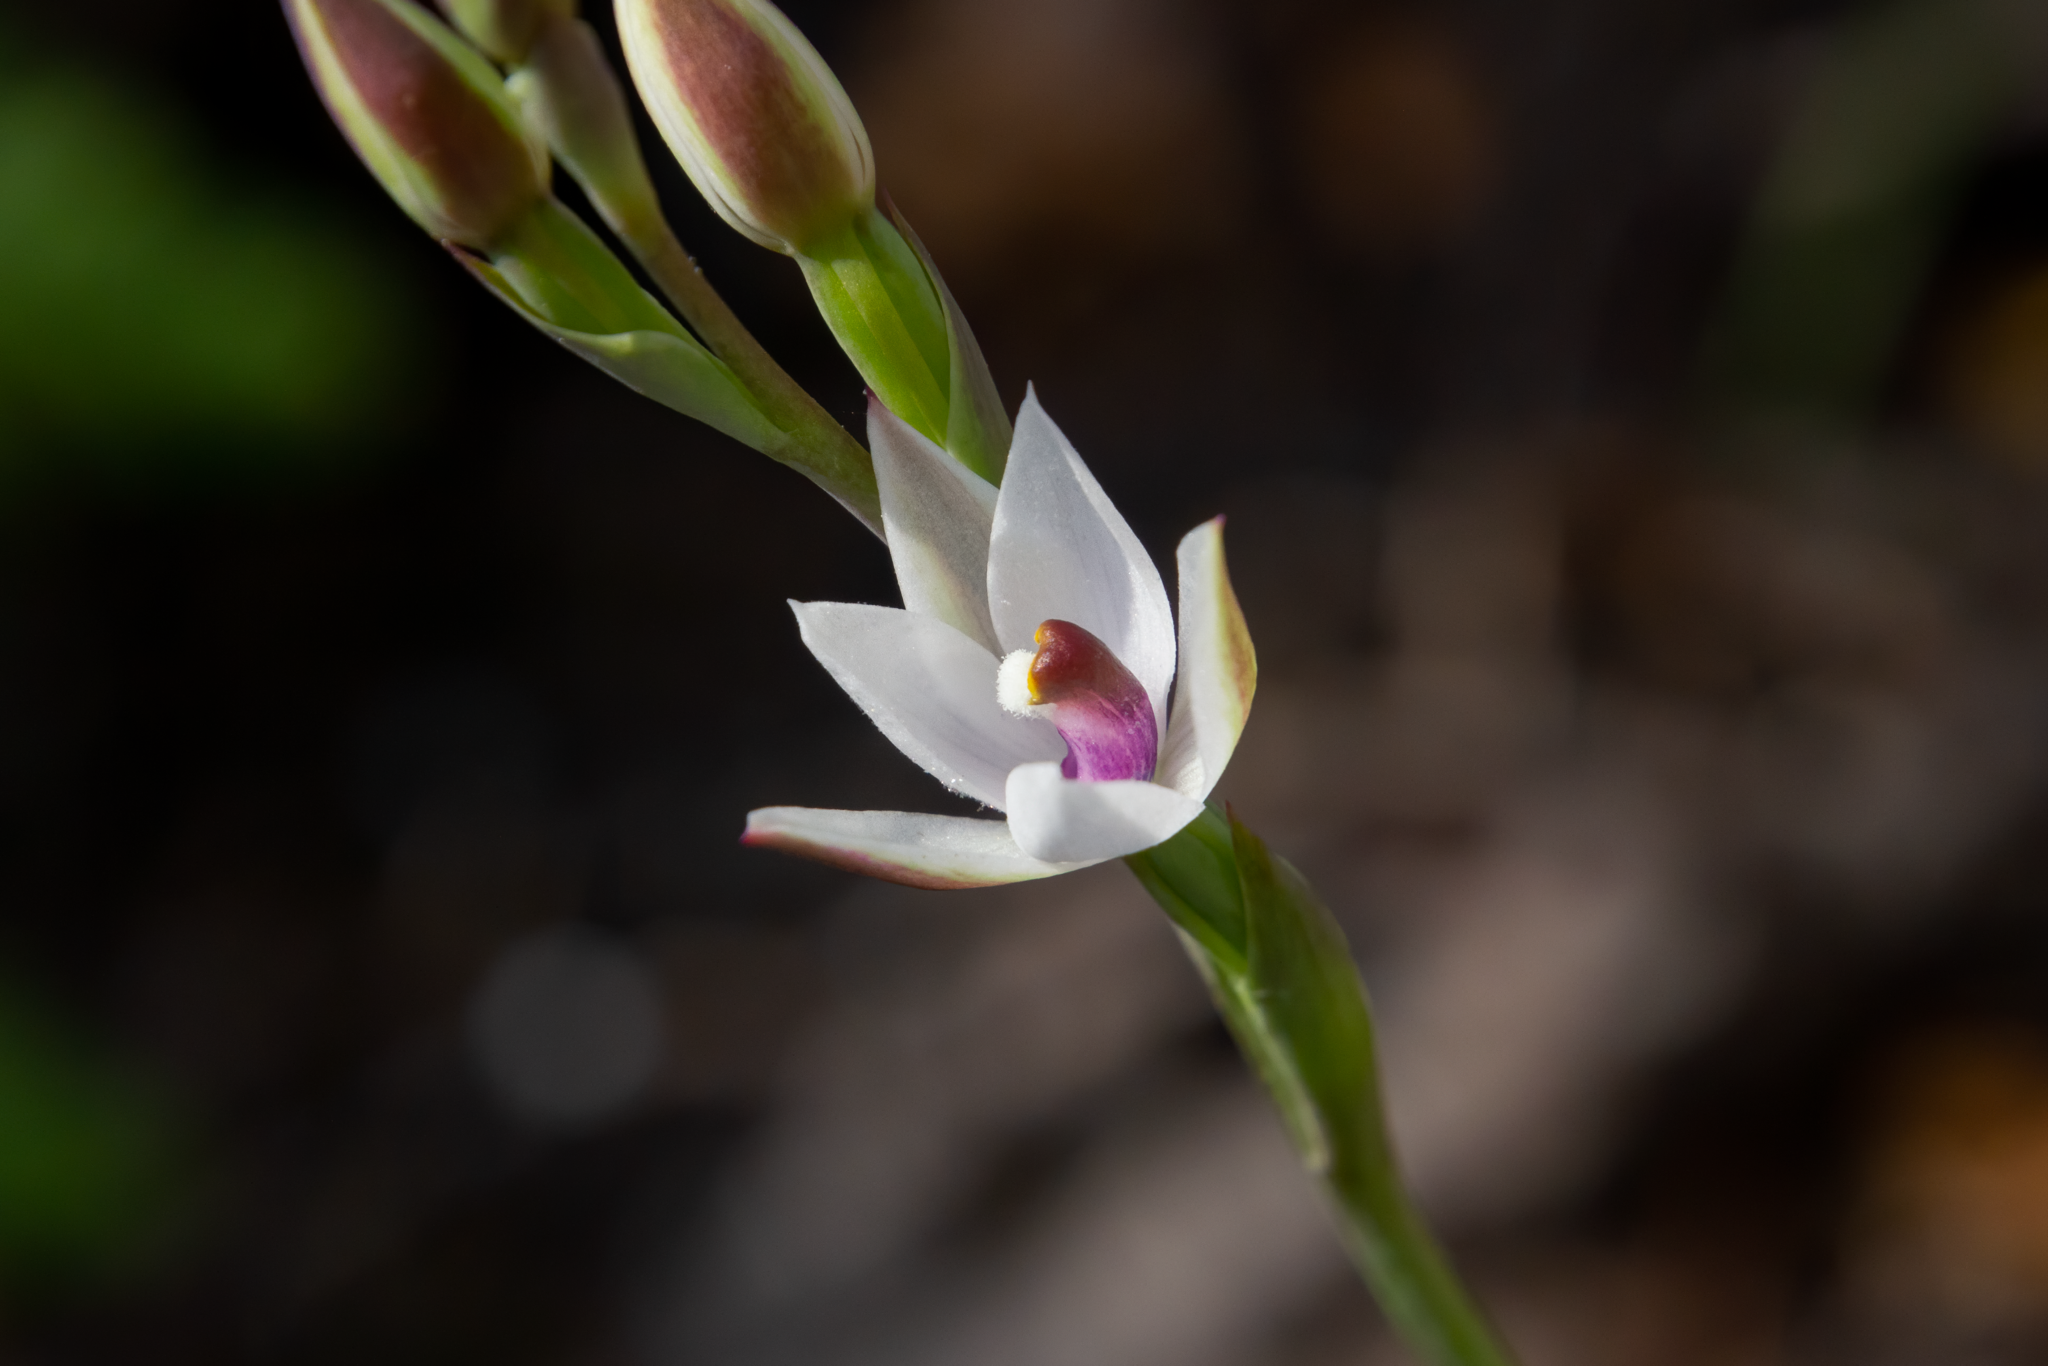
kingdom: Plantae
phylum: Tracheophyta
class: Liliopsida
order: Asparagales
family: Orchidaceae
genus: Thelymitra
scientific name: Thelymitra longifolia
